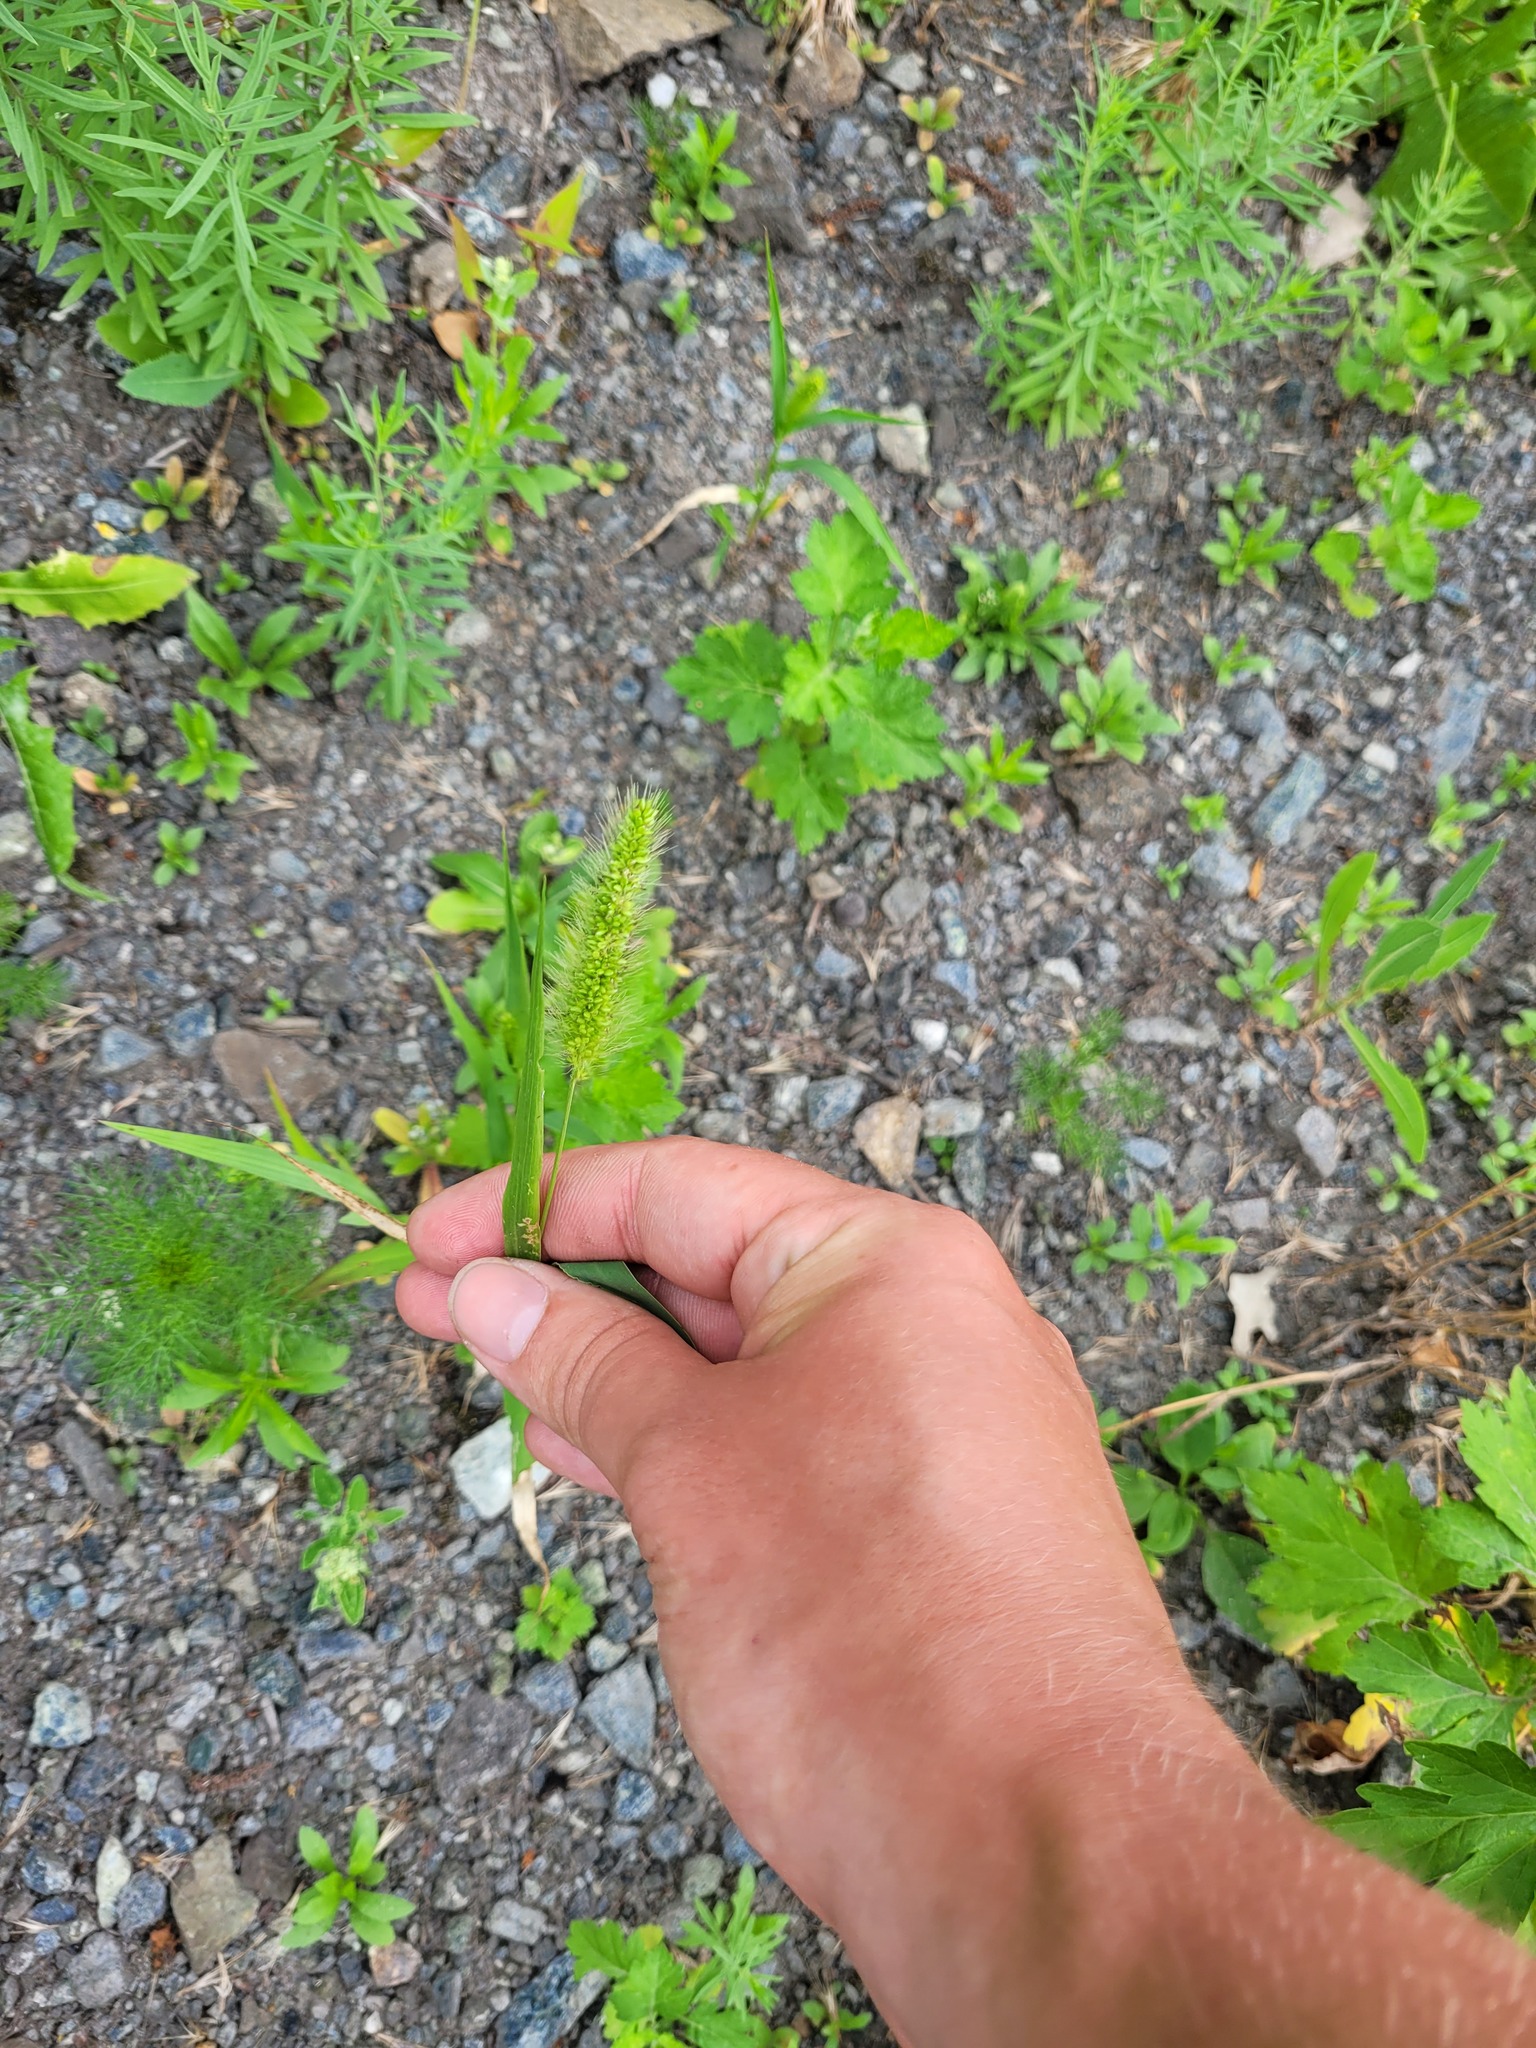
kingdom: Plantae
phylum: Tracheophyta
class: Liliopsida
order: Poales
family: Poaceae
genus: Setaria
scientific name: Setaria viridis
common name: Green bristlegrass
